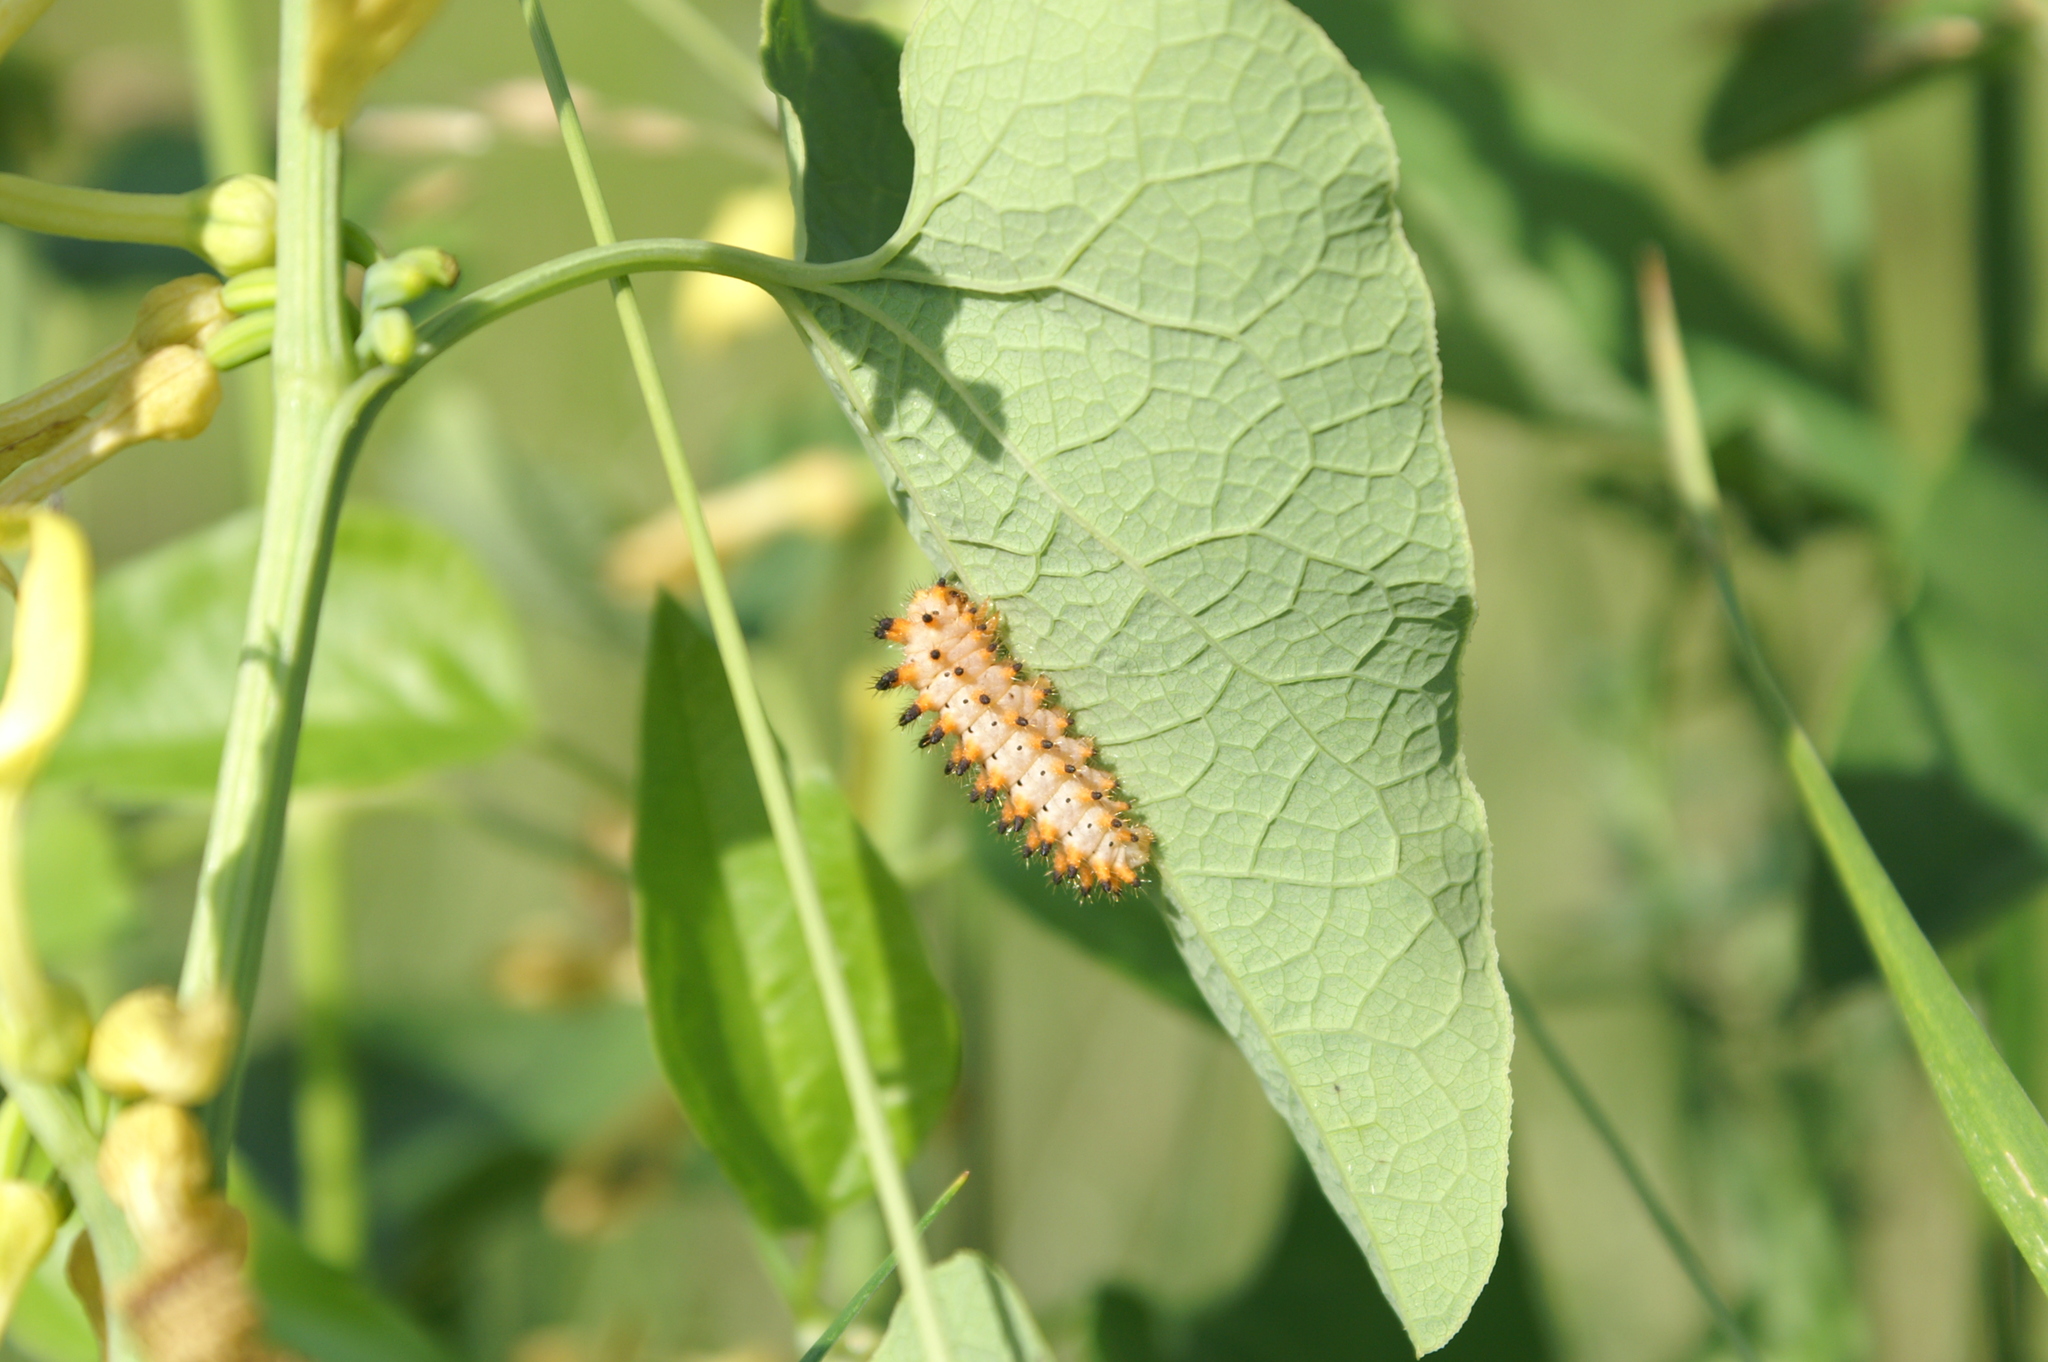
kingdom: Animalia
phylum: Arthropoda
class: Insecta
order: Lepidoptera
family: Papilionidae
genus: Zerynthia
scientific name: Zerynthia polyxena
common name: Southern festoon
